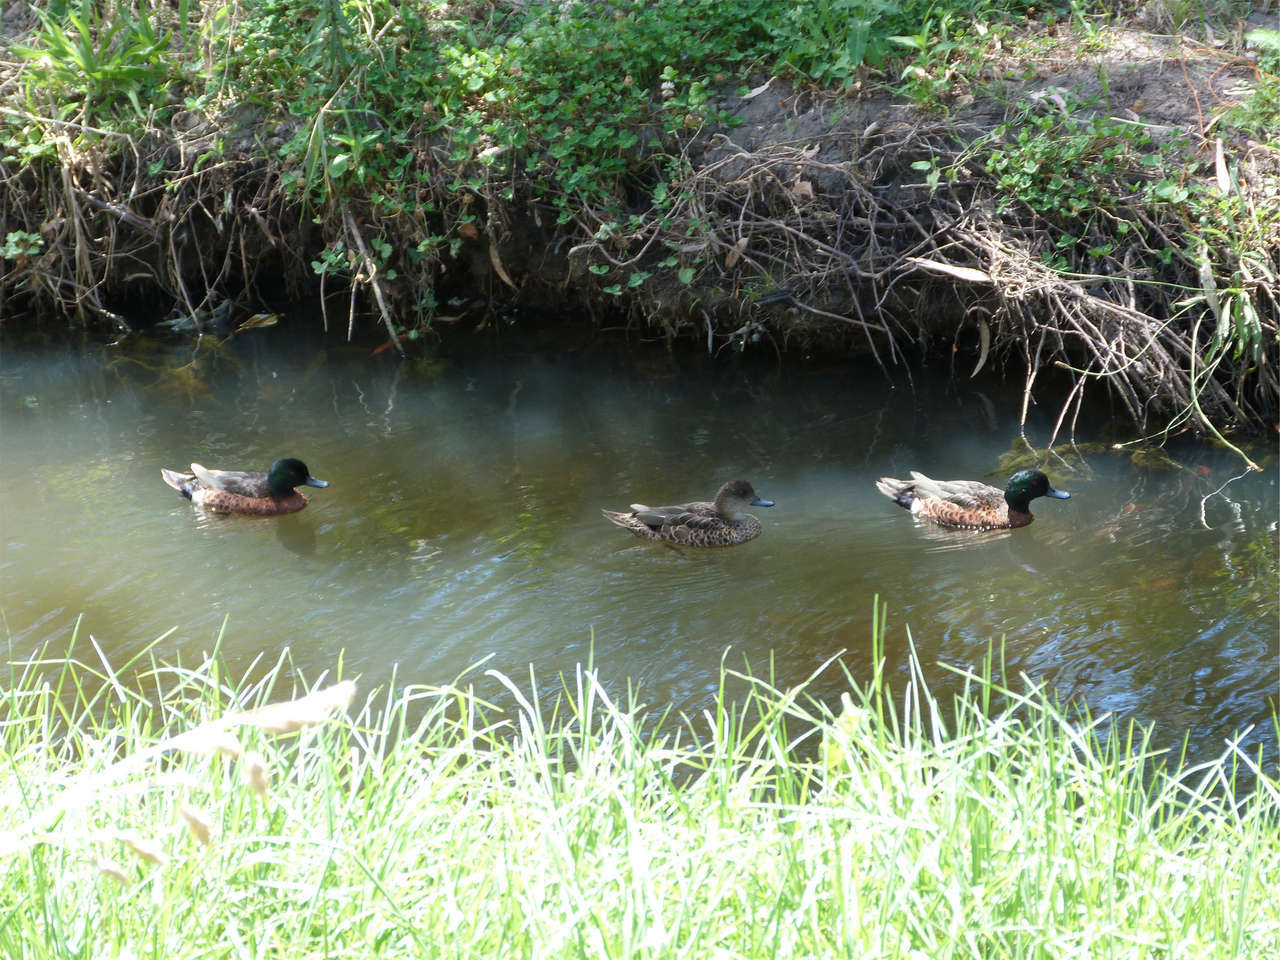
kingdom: Animalia
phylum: Chordata
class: Aves
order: Anseriformes
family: Anatidae
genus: Anas
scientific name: Anas castanea
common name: Chestnut teal
